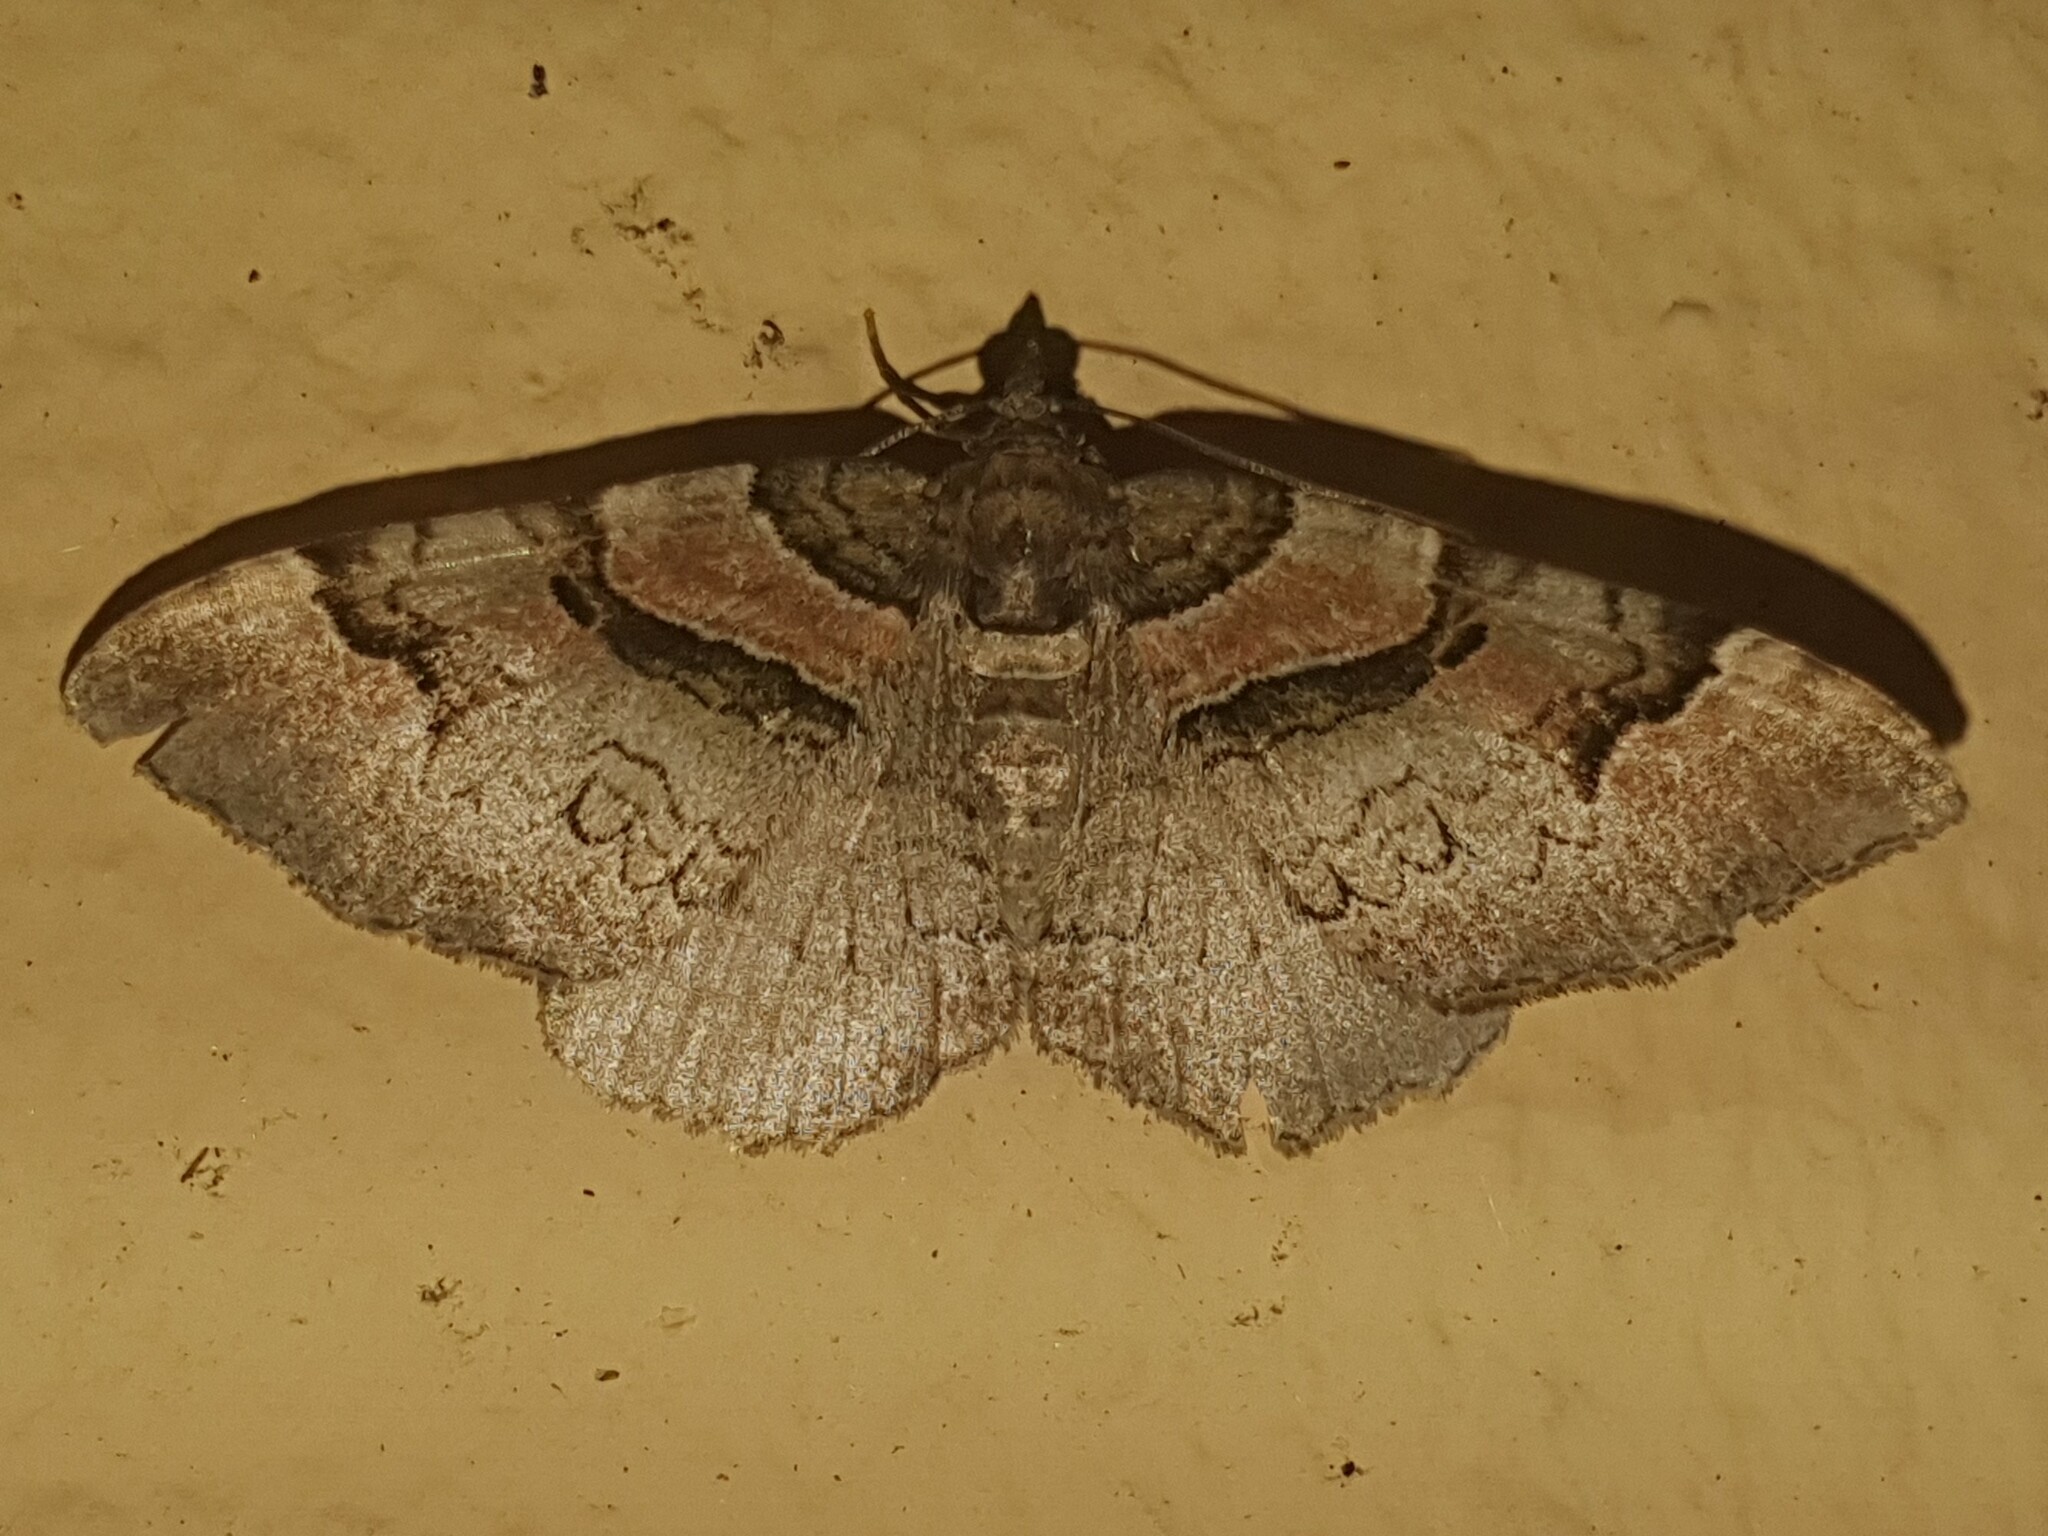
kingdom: Animalia
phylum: Arthropoda
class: Insecta
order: Lepidoptera
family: Geometridae
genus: Catarhoe
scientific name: Catarhoe rubidata
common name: Ruddy carpet
